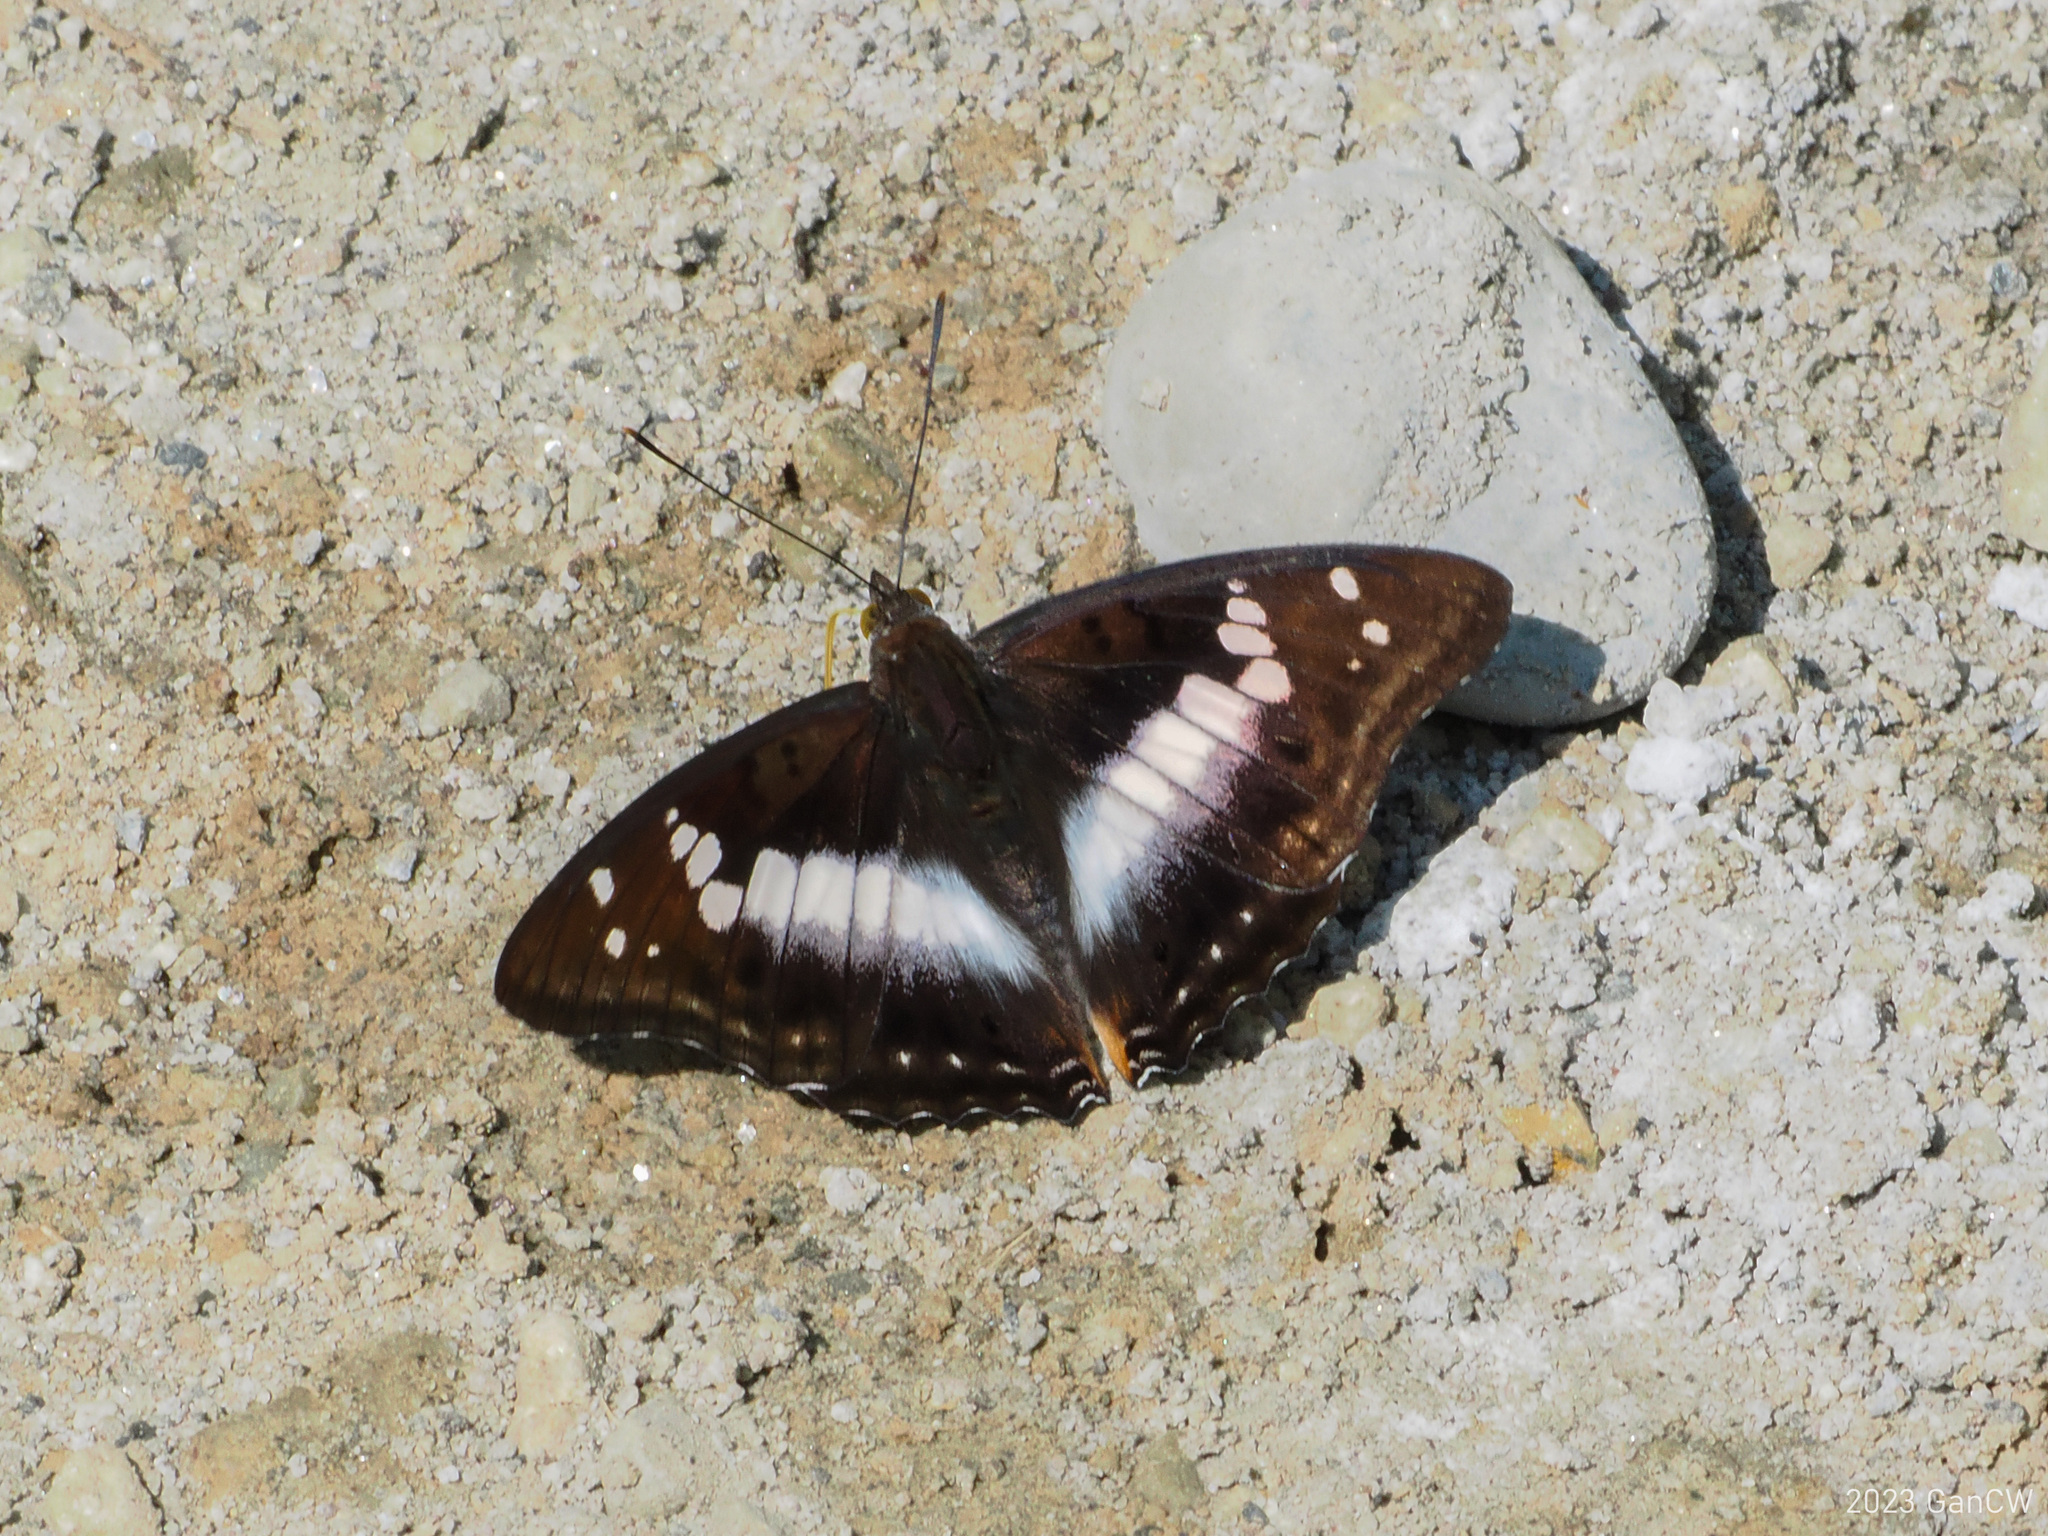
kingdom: Animalia
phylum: Arthropoda
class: Insecta
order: Lepidoptera
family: Nymphalidae
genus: Apatura
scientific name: Apatura Mimathyma ambica
